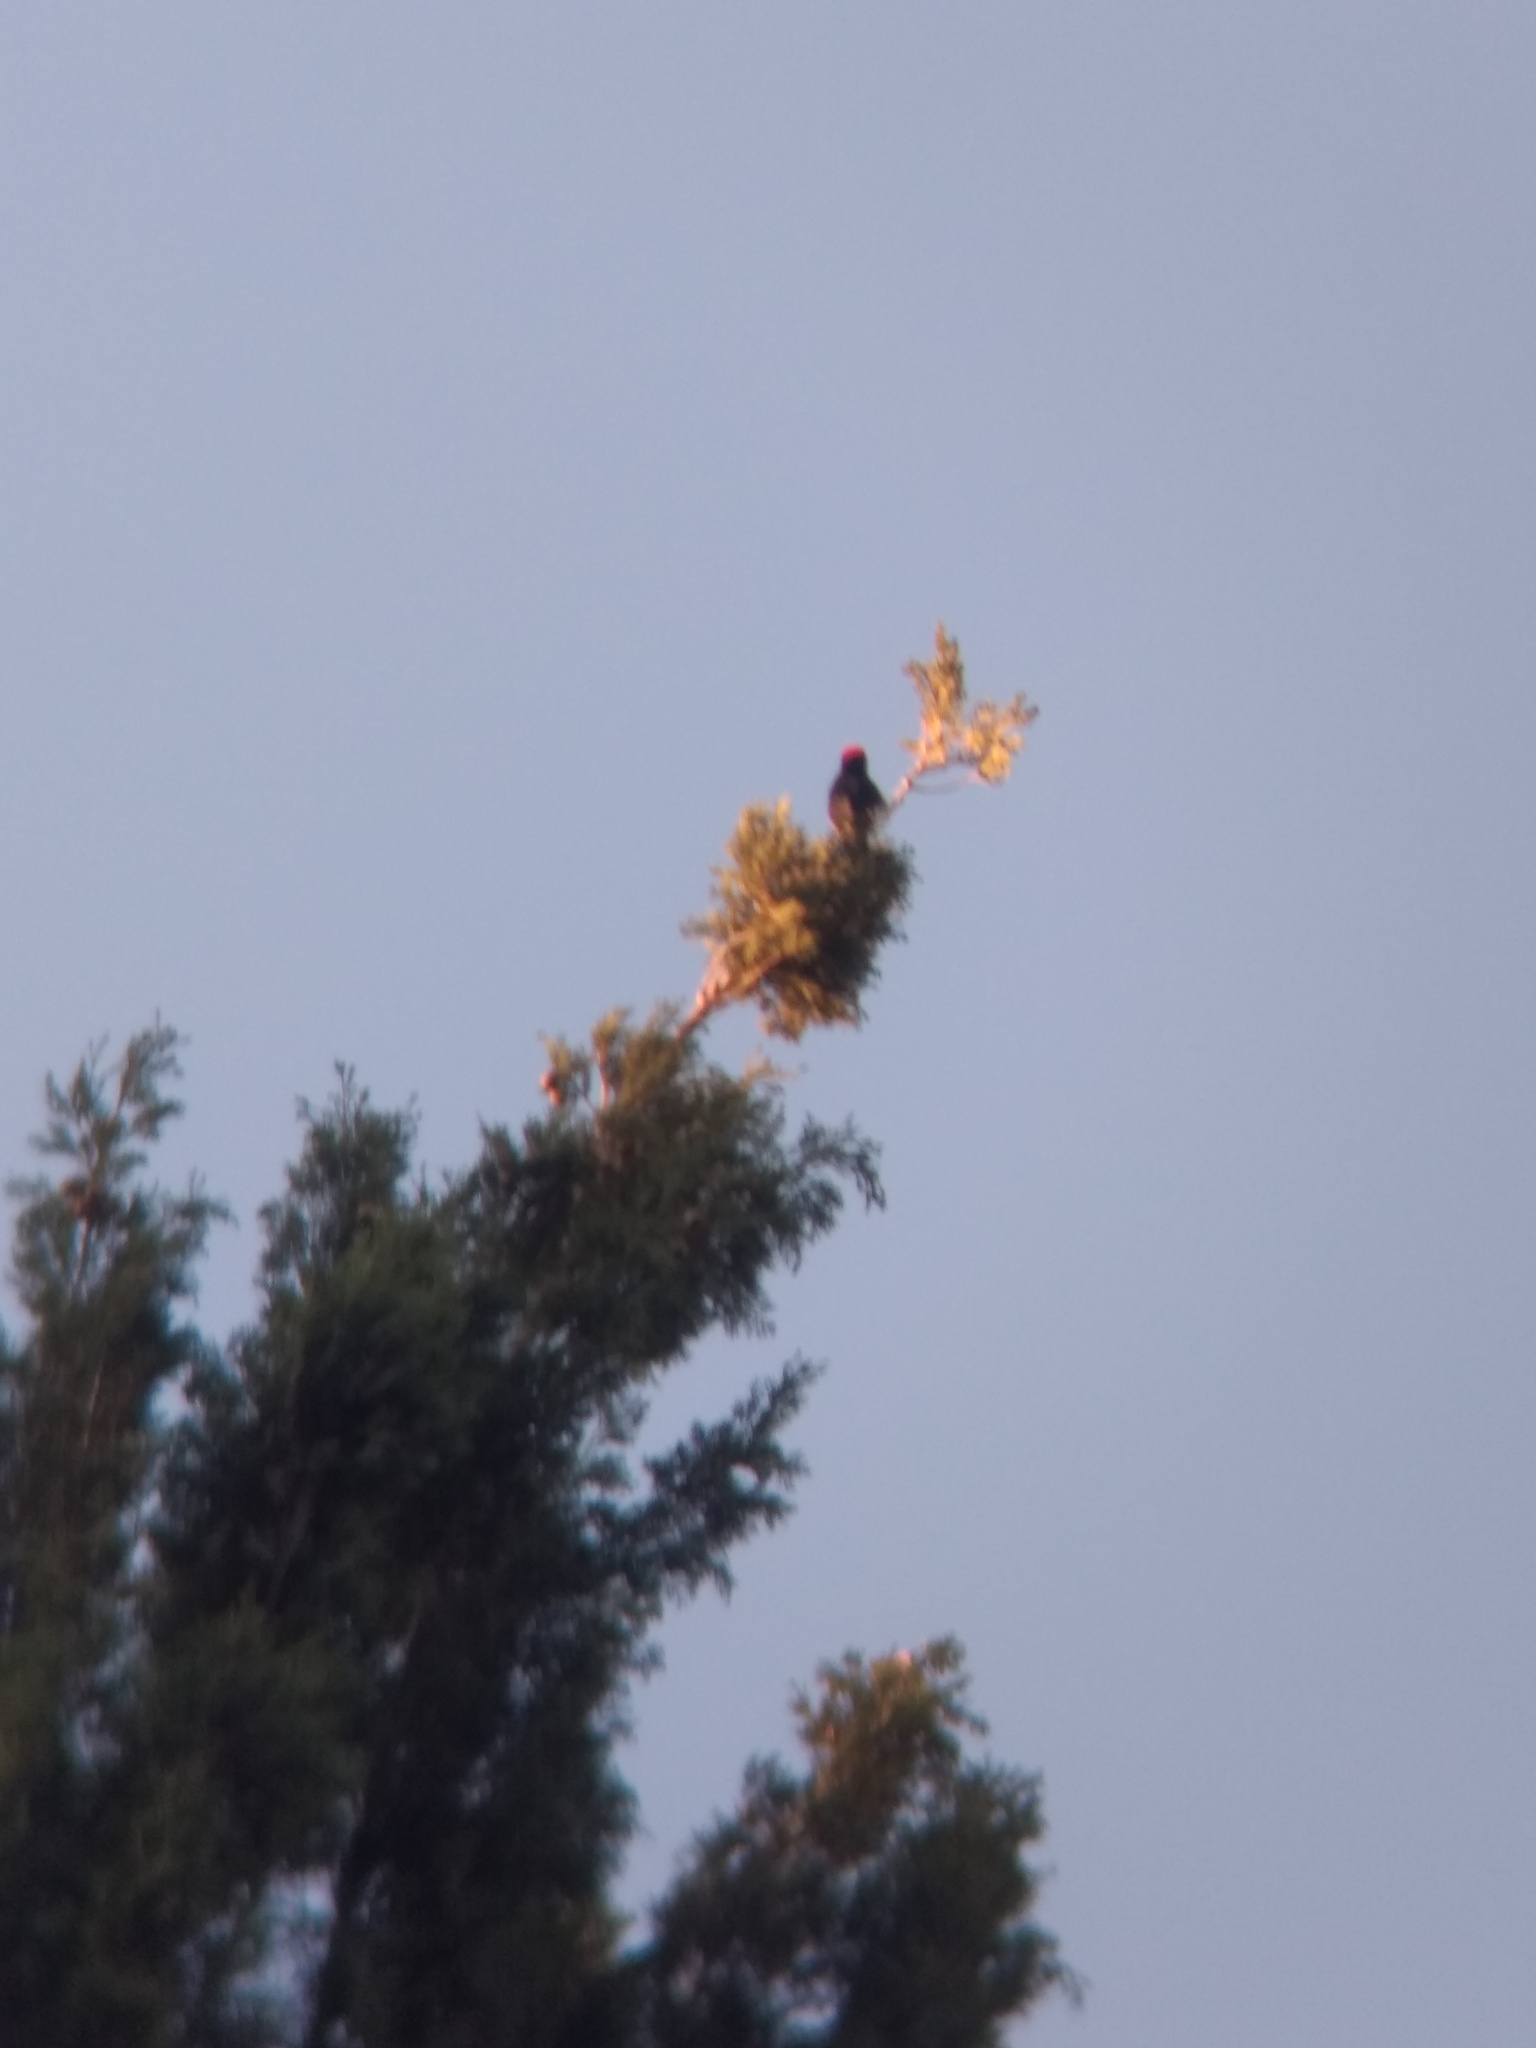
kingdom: Animalia
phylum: Chordata
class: Aves
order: Piciformes
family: Picidae
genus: Melanerpes
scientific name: Melanerpes formicivorus
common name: Acorn woodpecker
